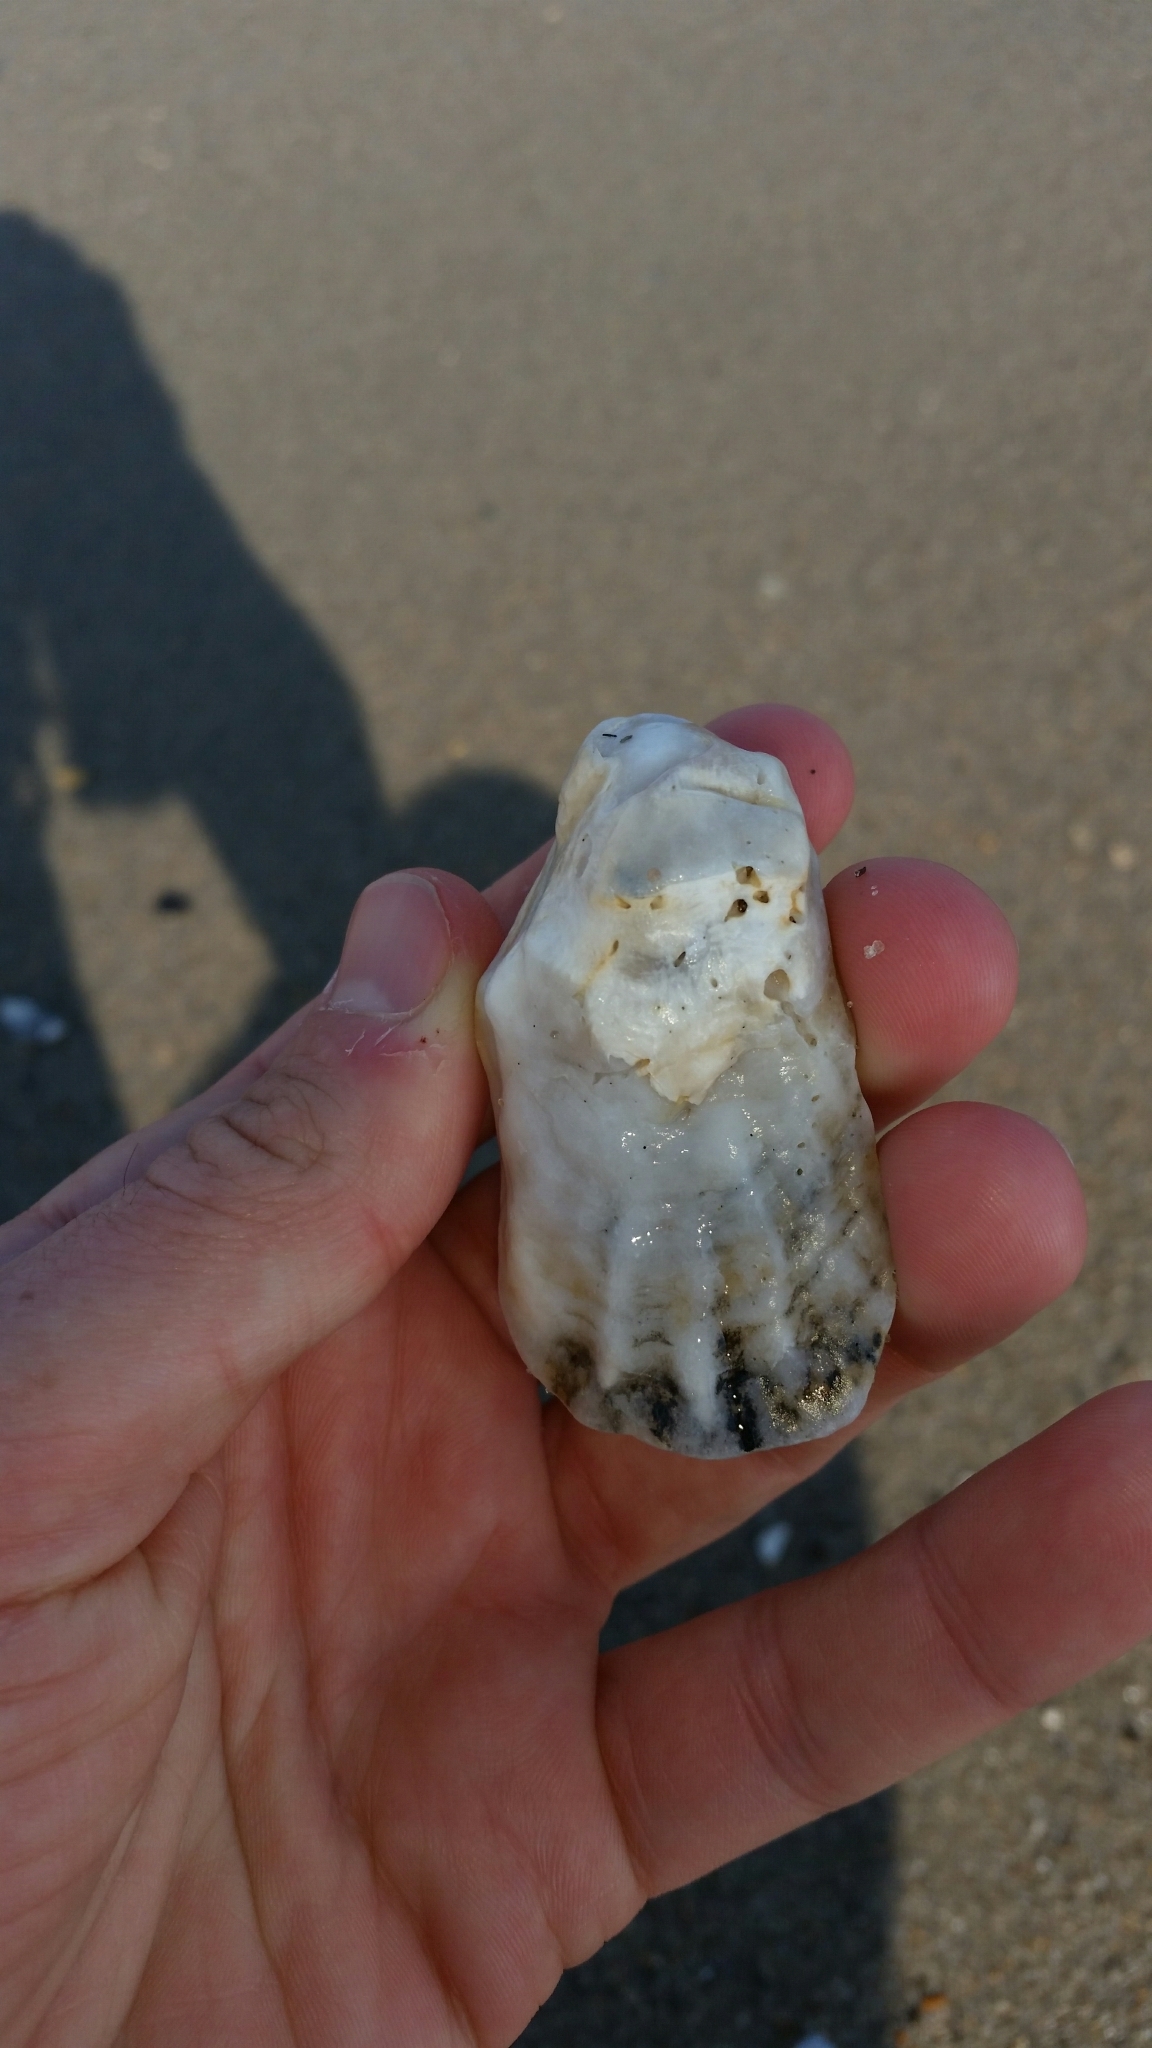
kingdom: Animalia
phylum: Mollusca
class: Bivalvia
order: Ostreida
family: Ostreidae
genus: Crassostrea
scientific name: Crassostrea virginica
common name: American oyster
